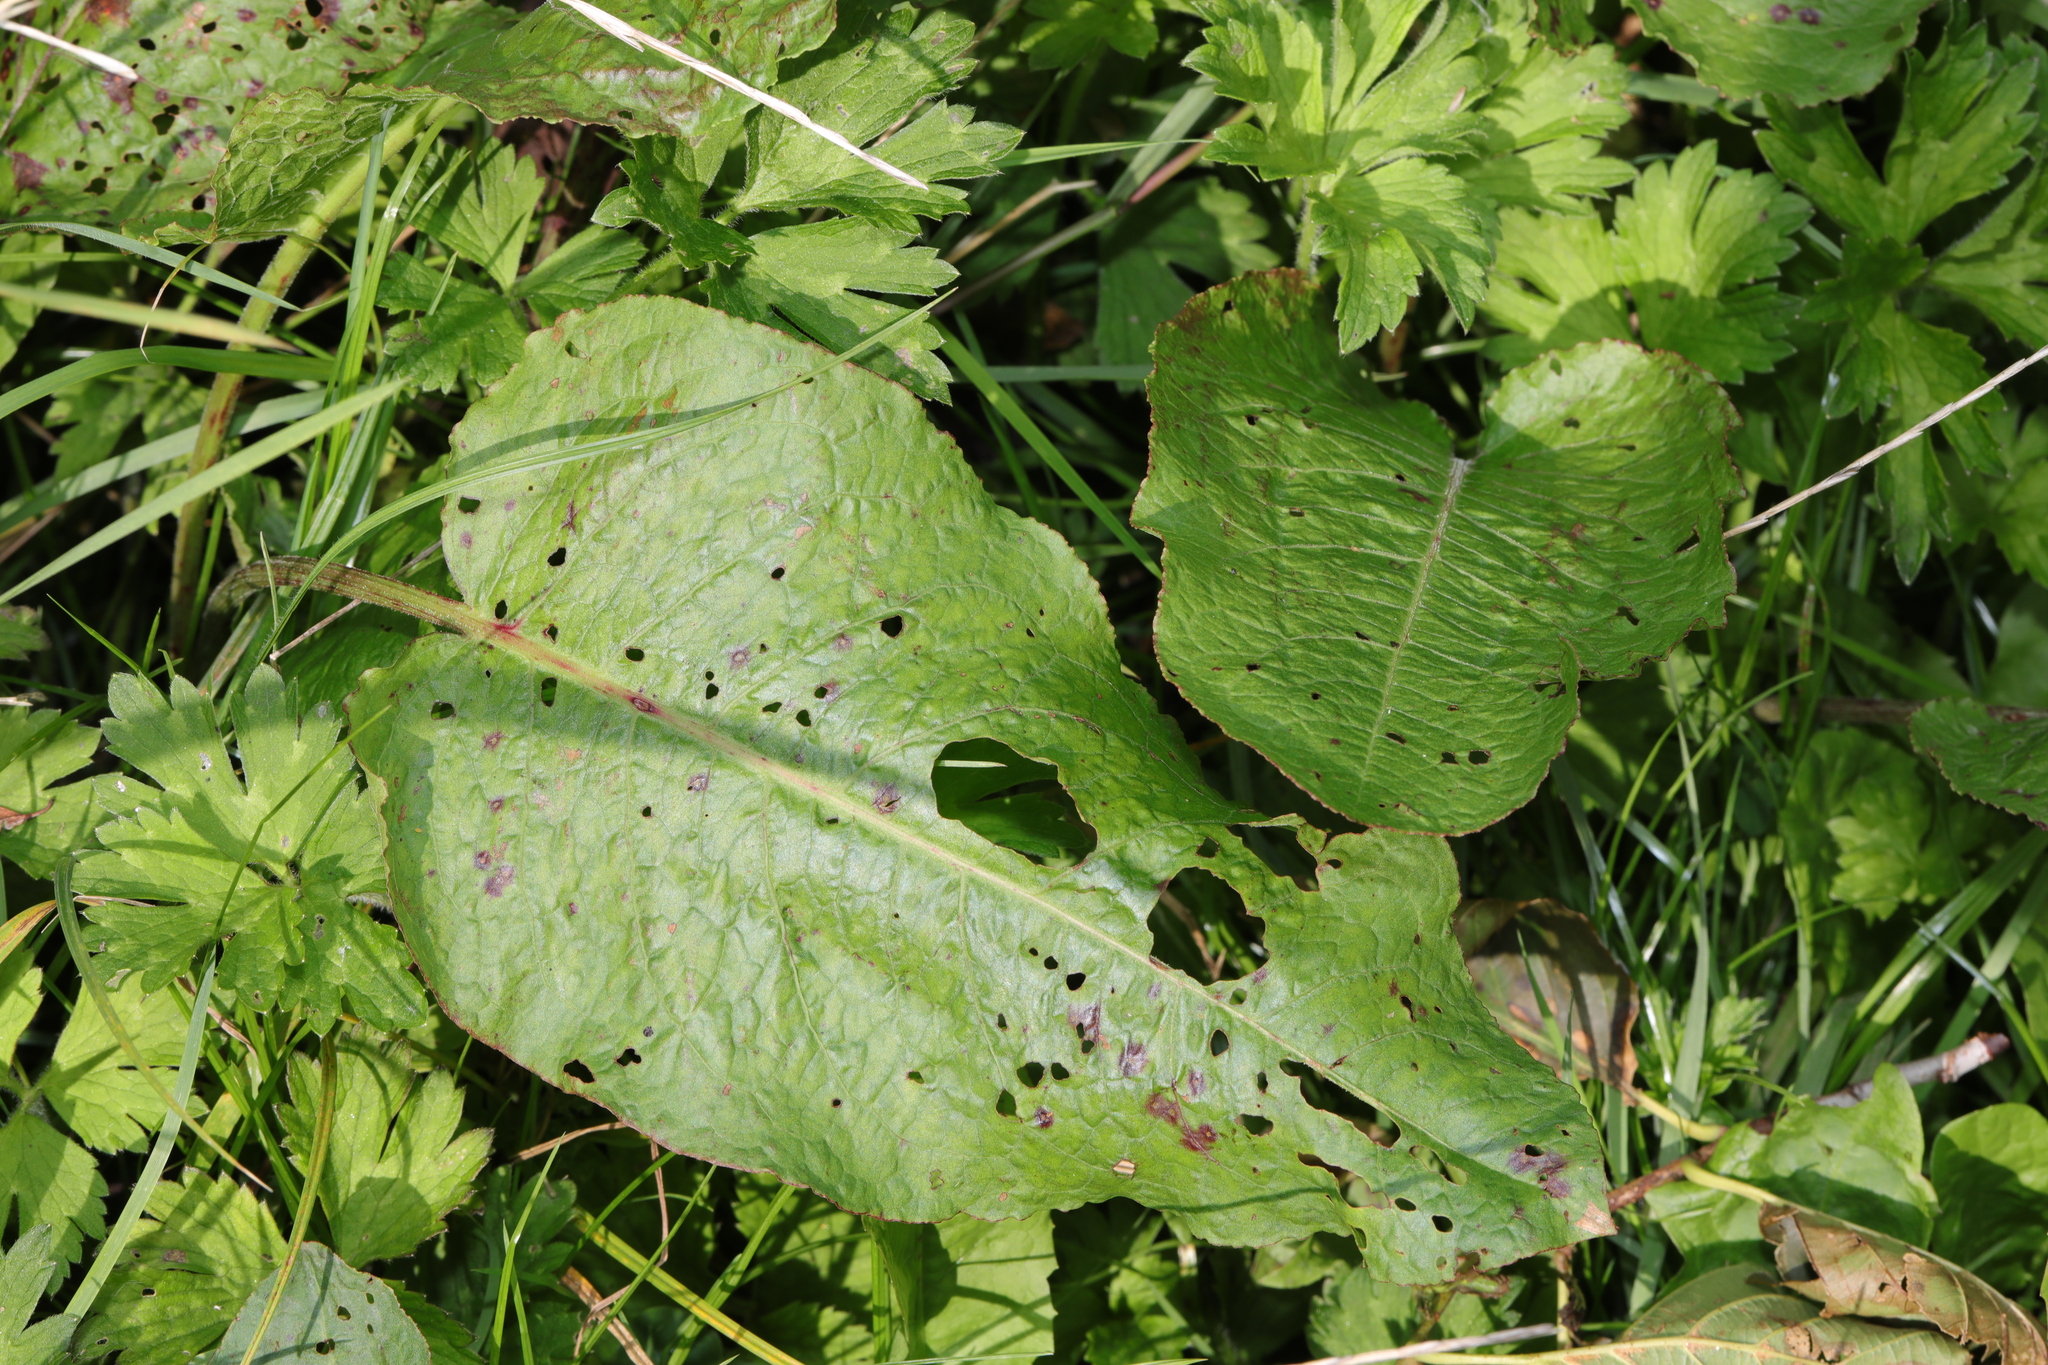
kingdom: Plantae
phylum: Tracheophyta
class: Magnoliopsida
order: Caryophyllales
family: Polygonaceae
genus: Rumex
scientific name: Rumex obtusifolius
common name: Bitter dock
